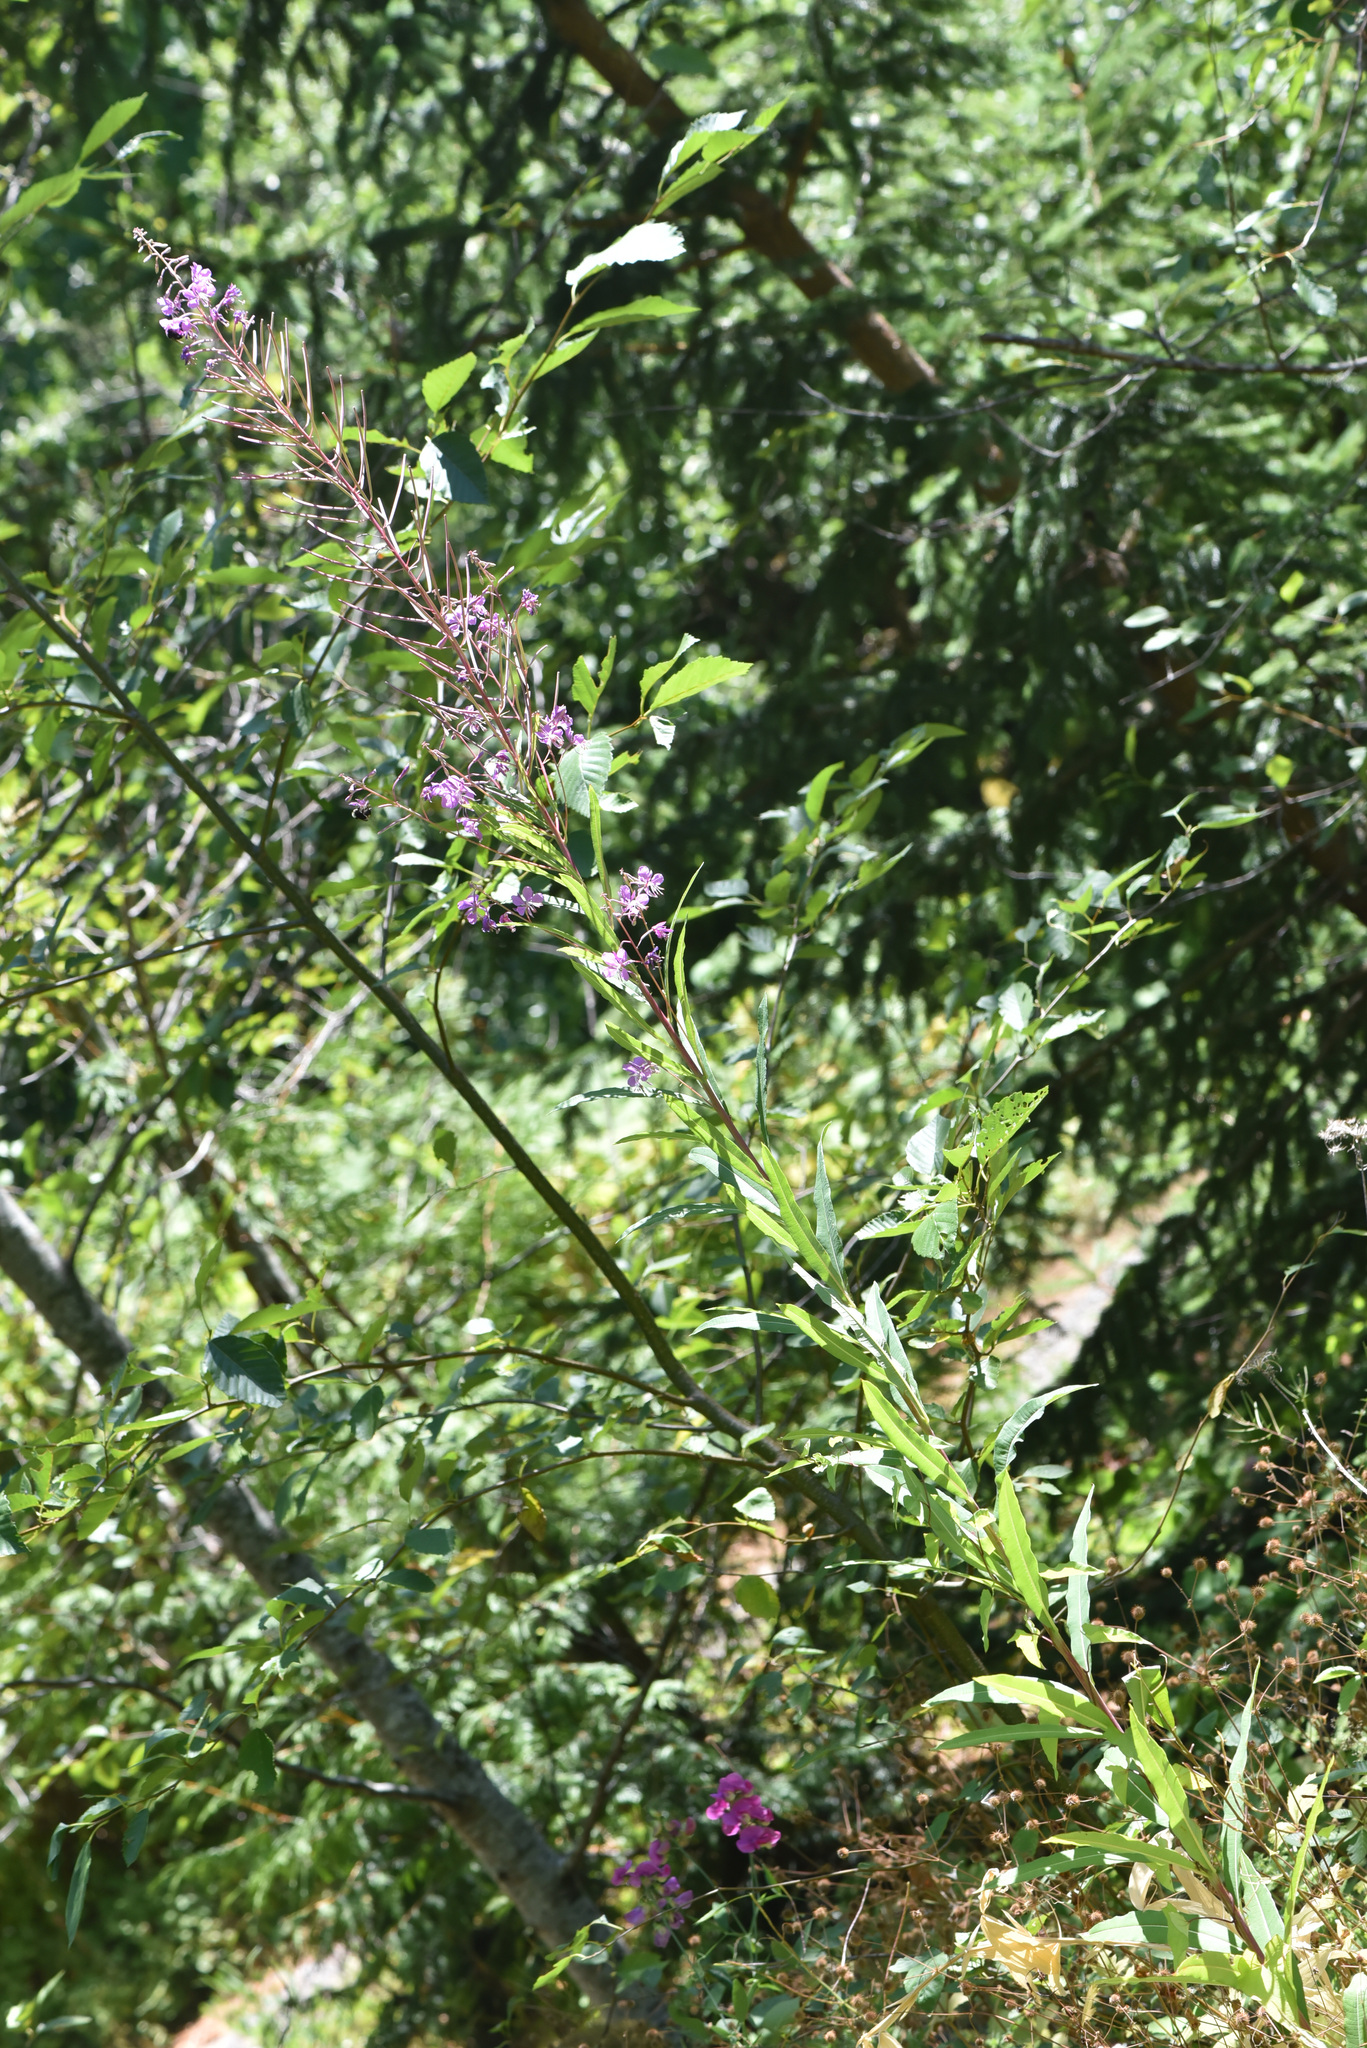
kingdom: Plantae
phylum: Tracheophyta
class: Magnoliopsida
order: Myrtales
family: Onagraceae
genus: Chamaenerion
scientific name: Chamaenerion angustifolium
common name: Fireweed
